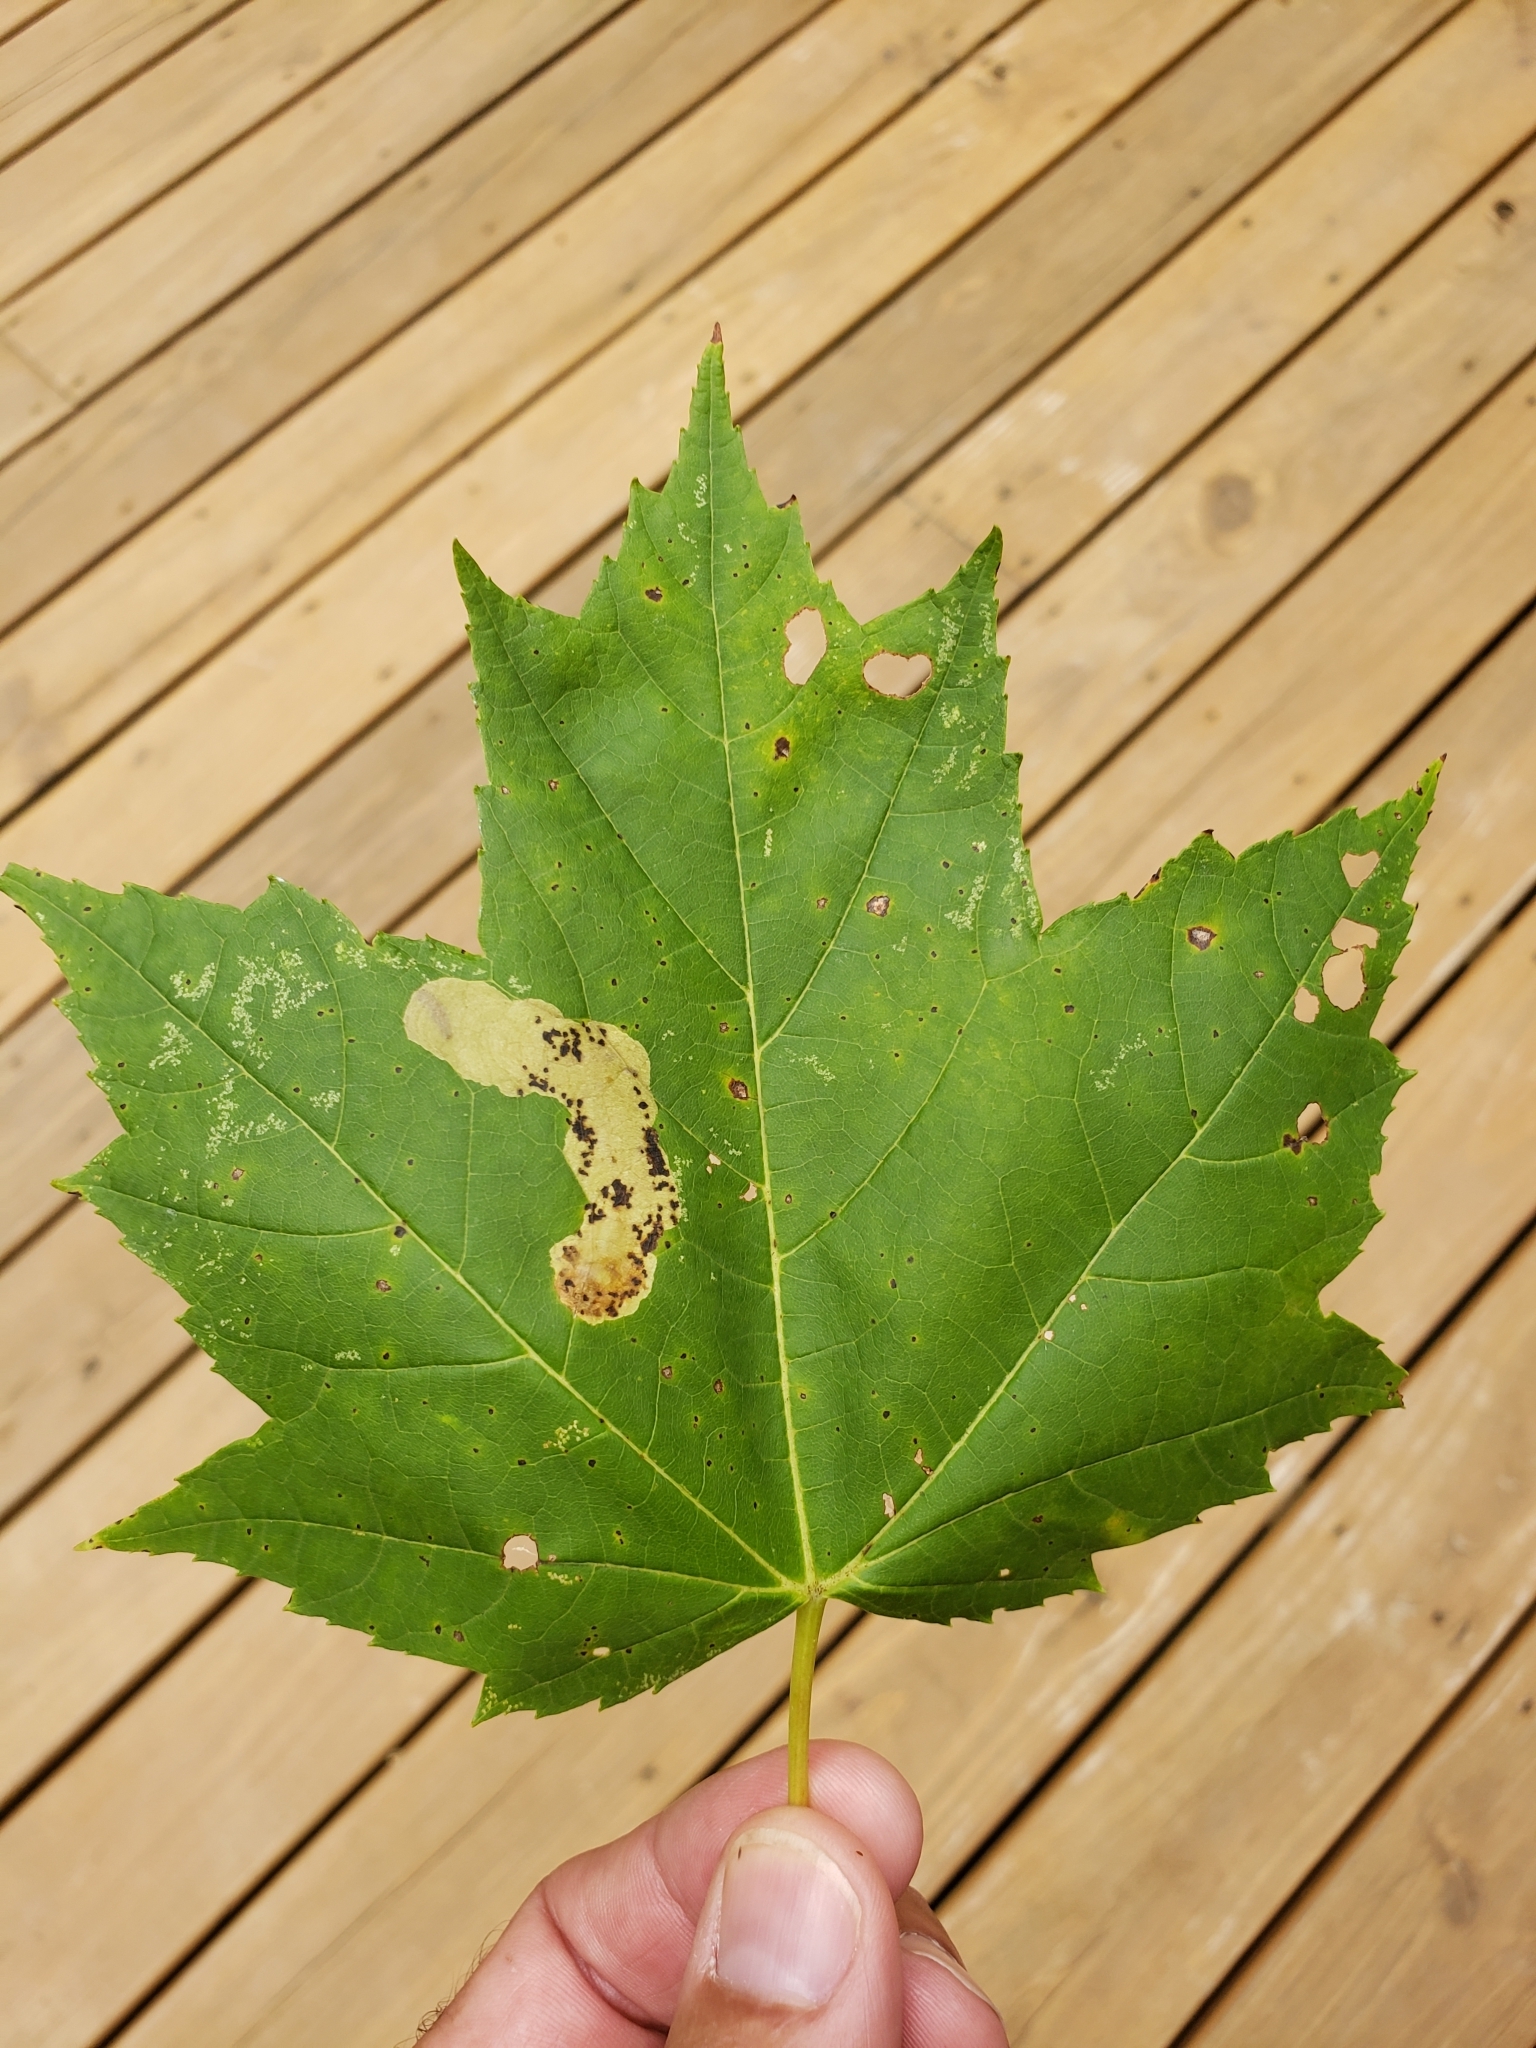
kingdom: Animalia
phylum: Arthropoda
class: Insecta
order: Lepidoptera
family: Gracillariidae
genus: Cameraria
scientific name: Cameraria aceriella
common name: Maple leafblotch miner
